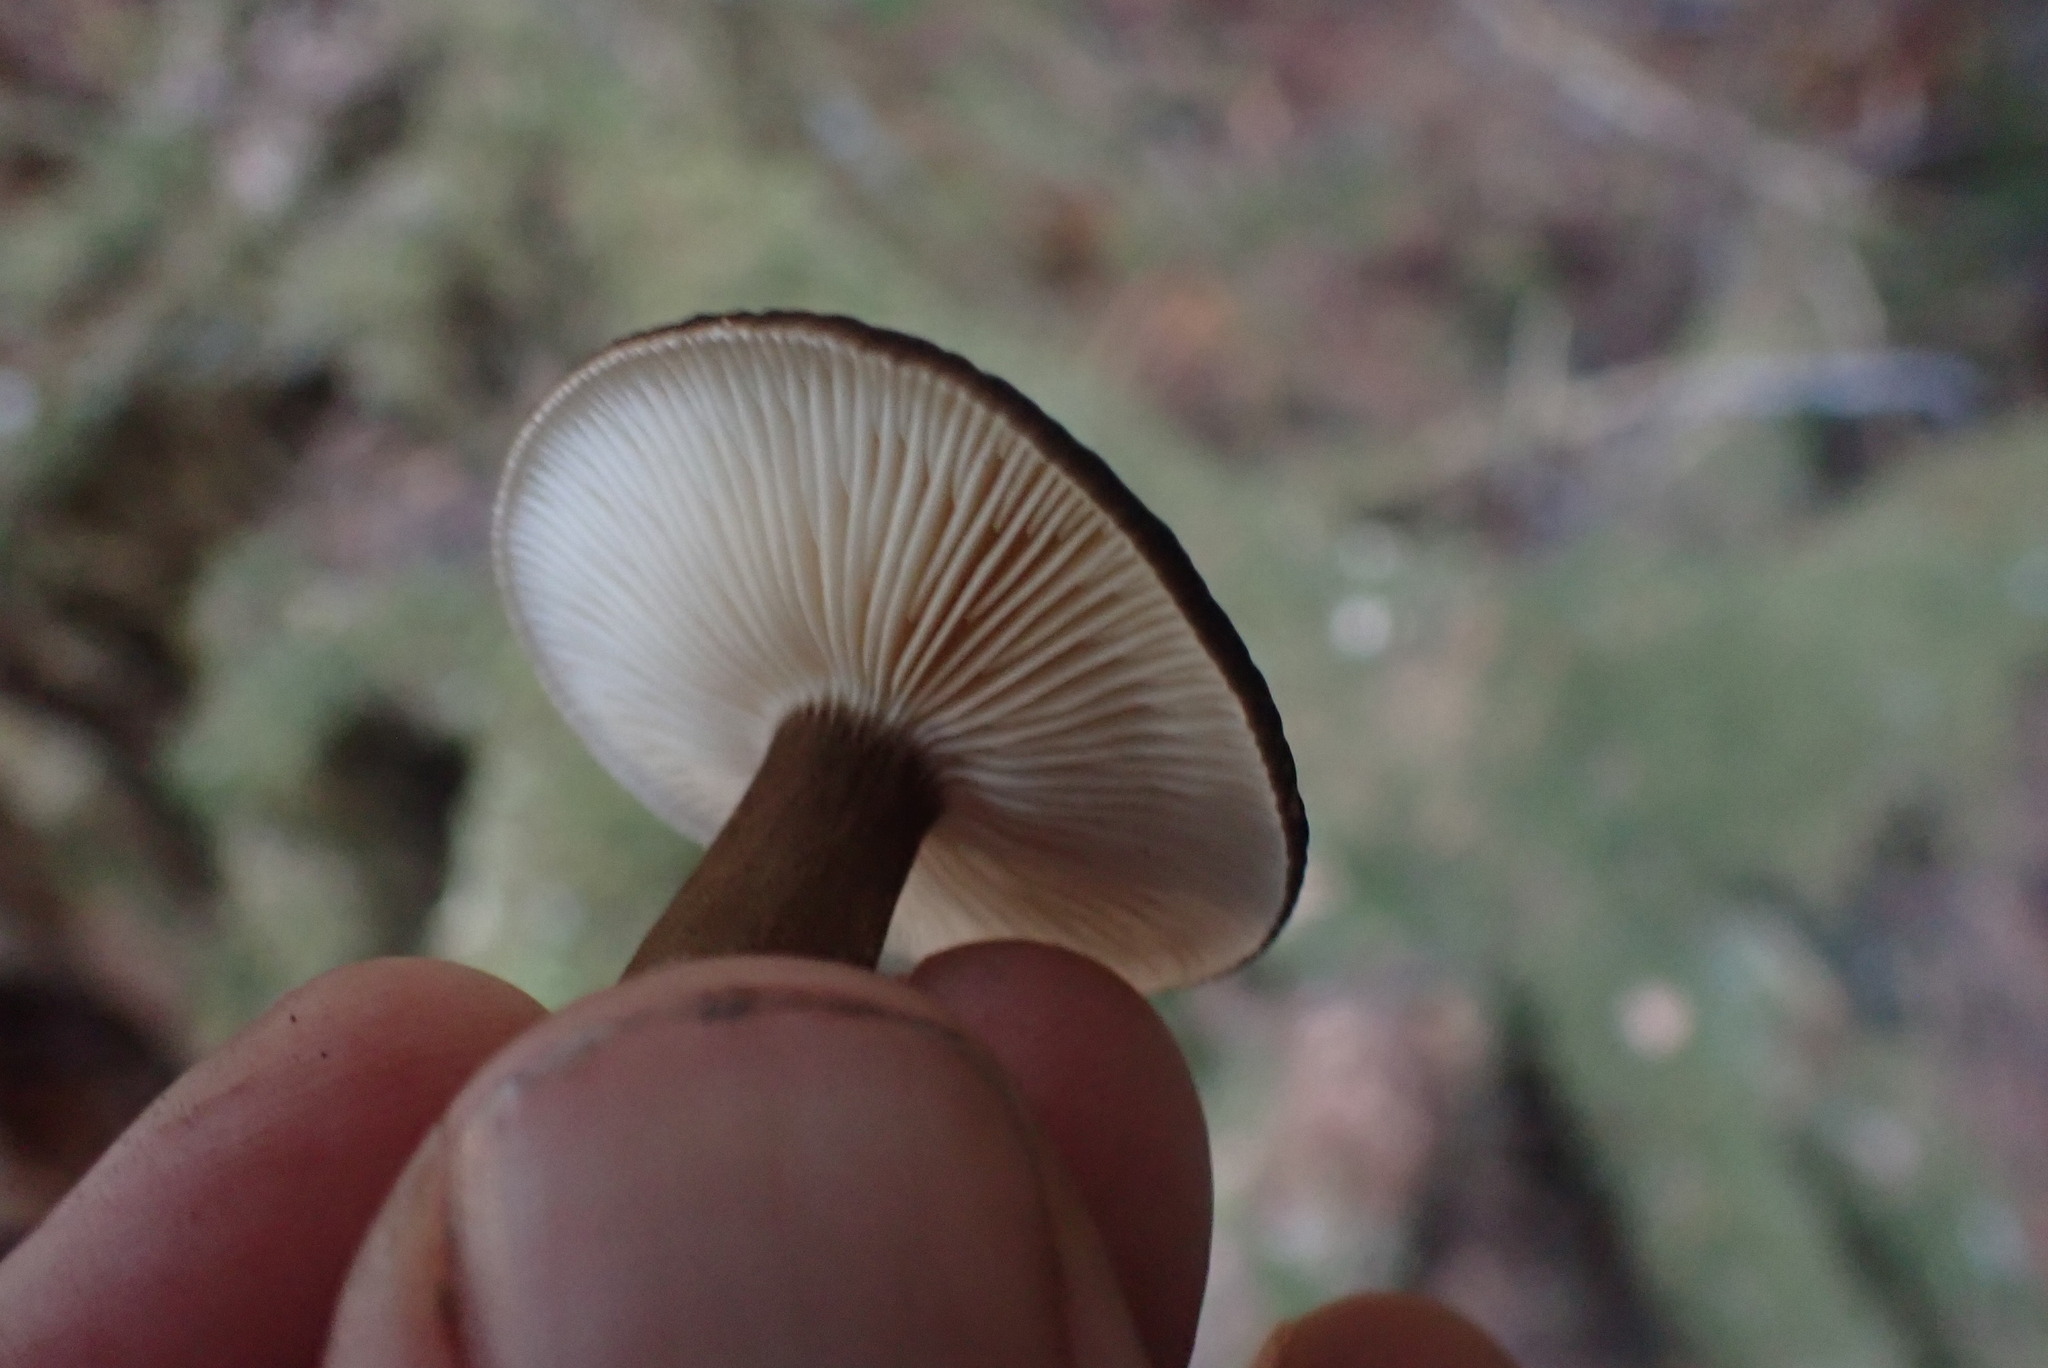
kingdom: Fungi
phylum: Basidiomycota
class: Agaricomycetes
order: Russulales
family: Russulaceae
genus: Lactarius
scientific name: Lactarius fallax
